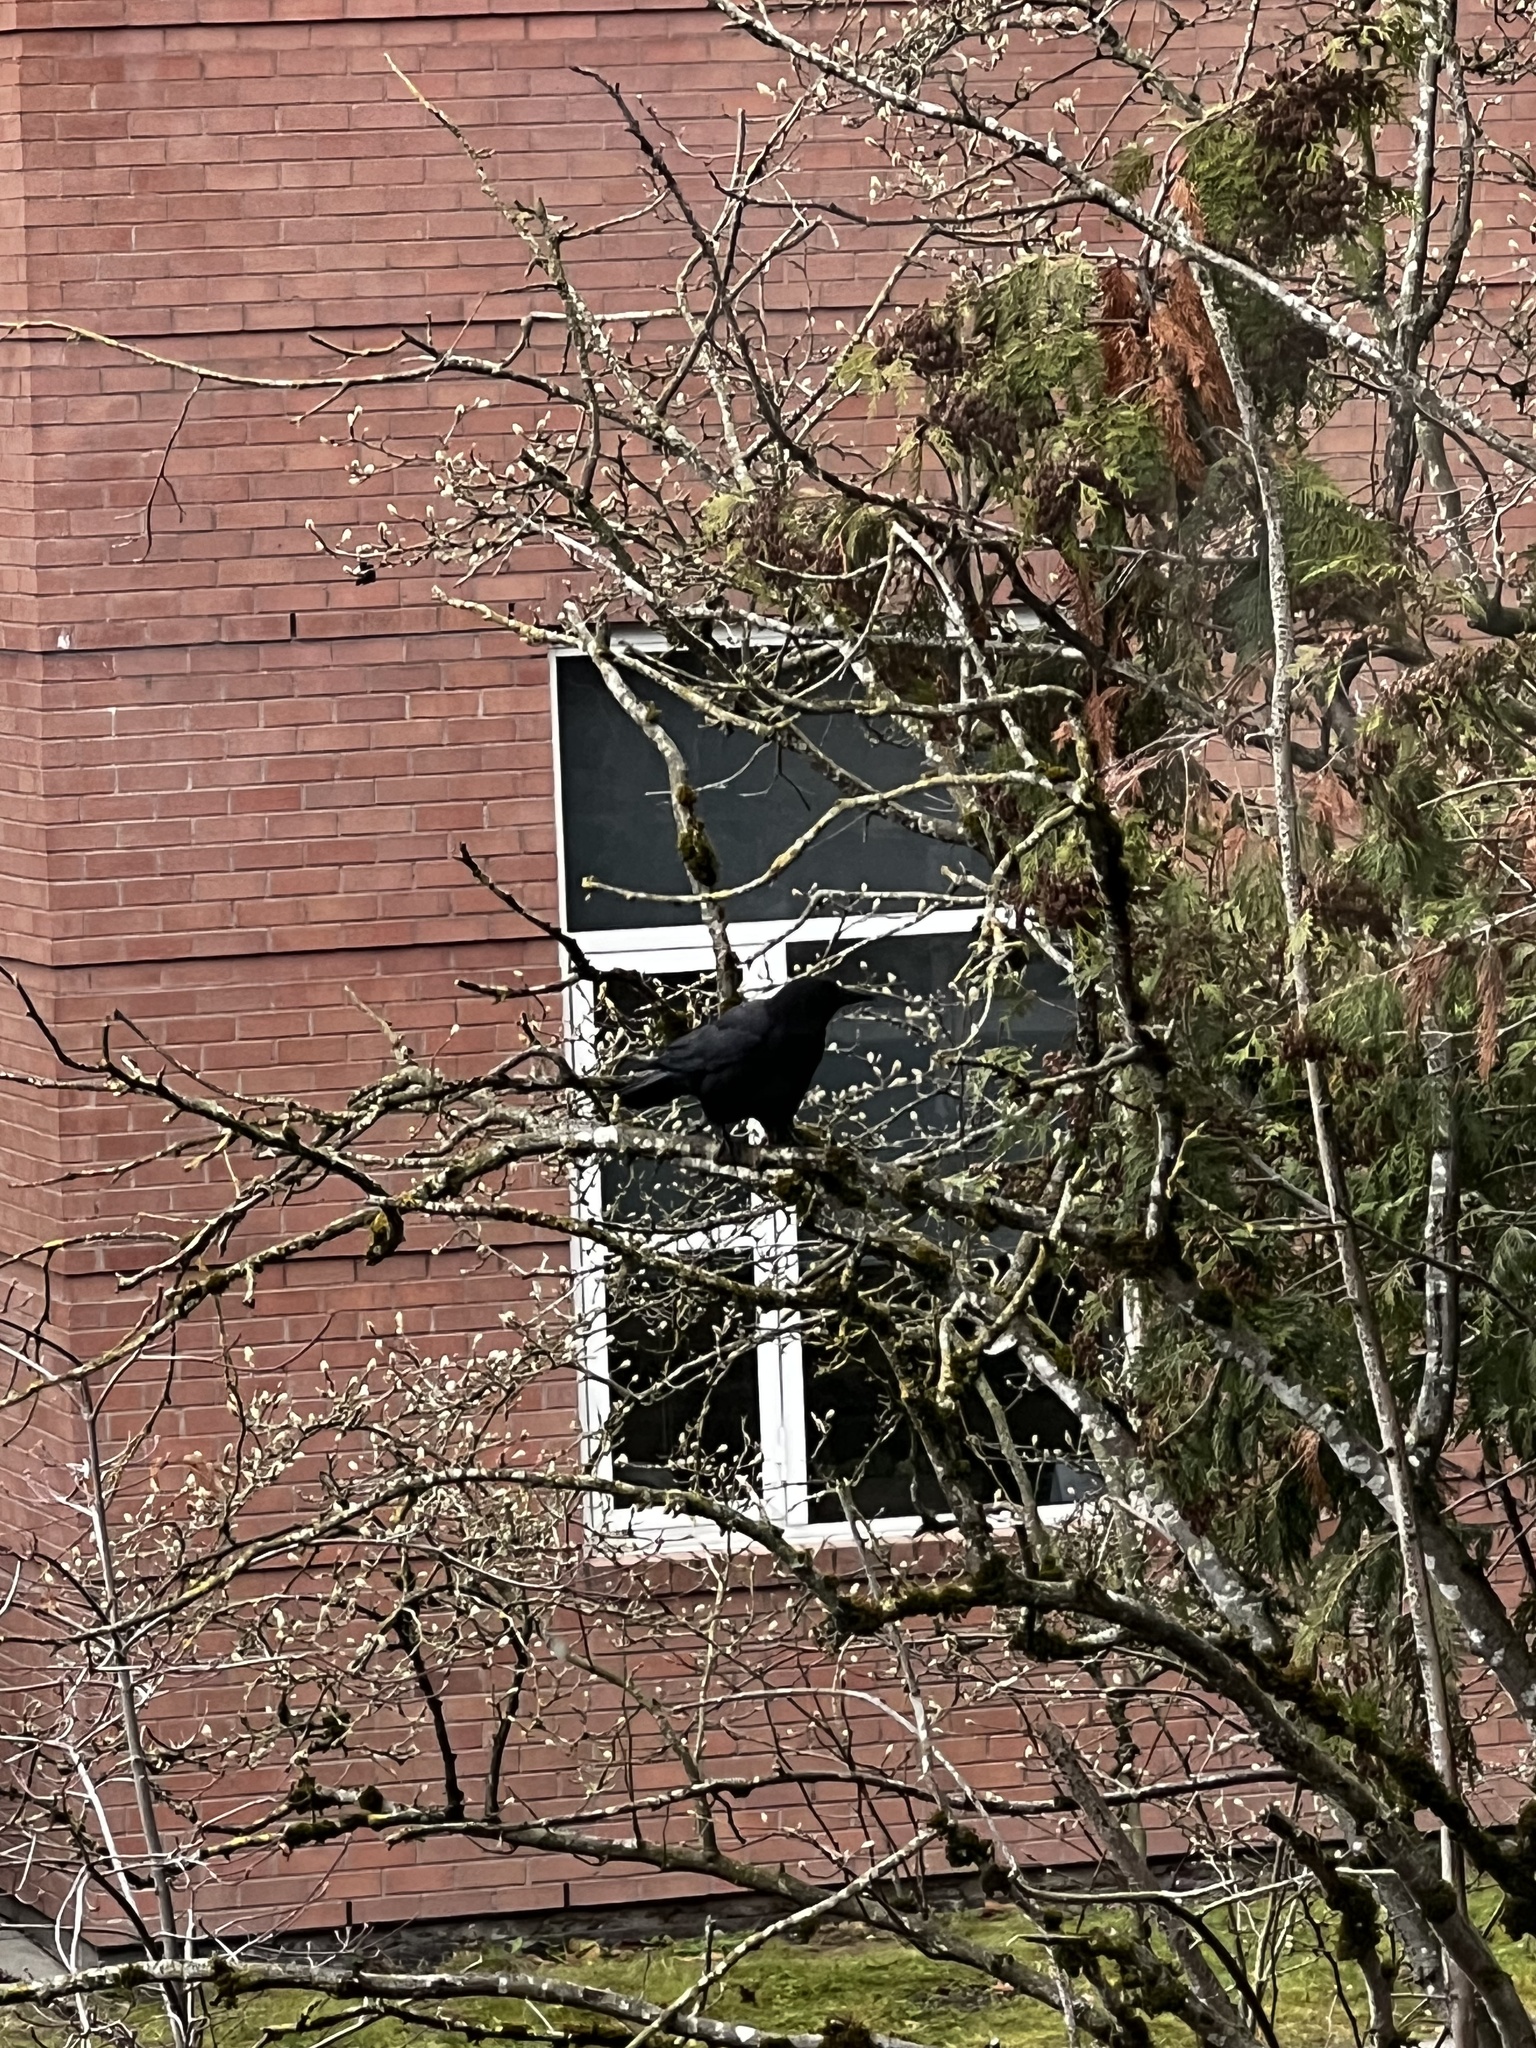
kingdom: Animalia
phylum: Chordata
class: Aves
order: Passeriformes
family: Corvidae
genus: Corvus
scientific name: Corvus brachyrhynchos
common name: American crow
